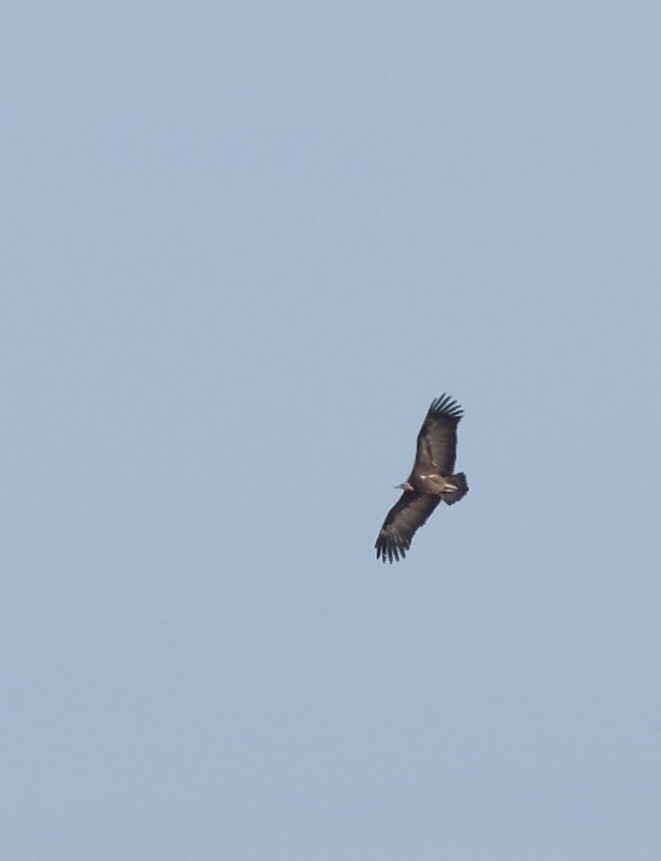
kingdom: Animalia
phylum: Chordata
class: Aves
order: Accipitriformes
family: Accipitridae
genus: Necrosyrtes
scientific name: Necrosyrtes monachus
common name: Hooded vulture
